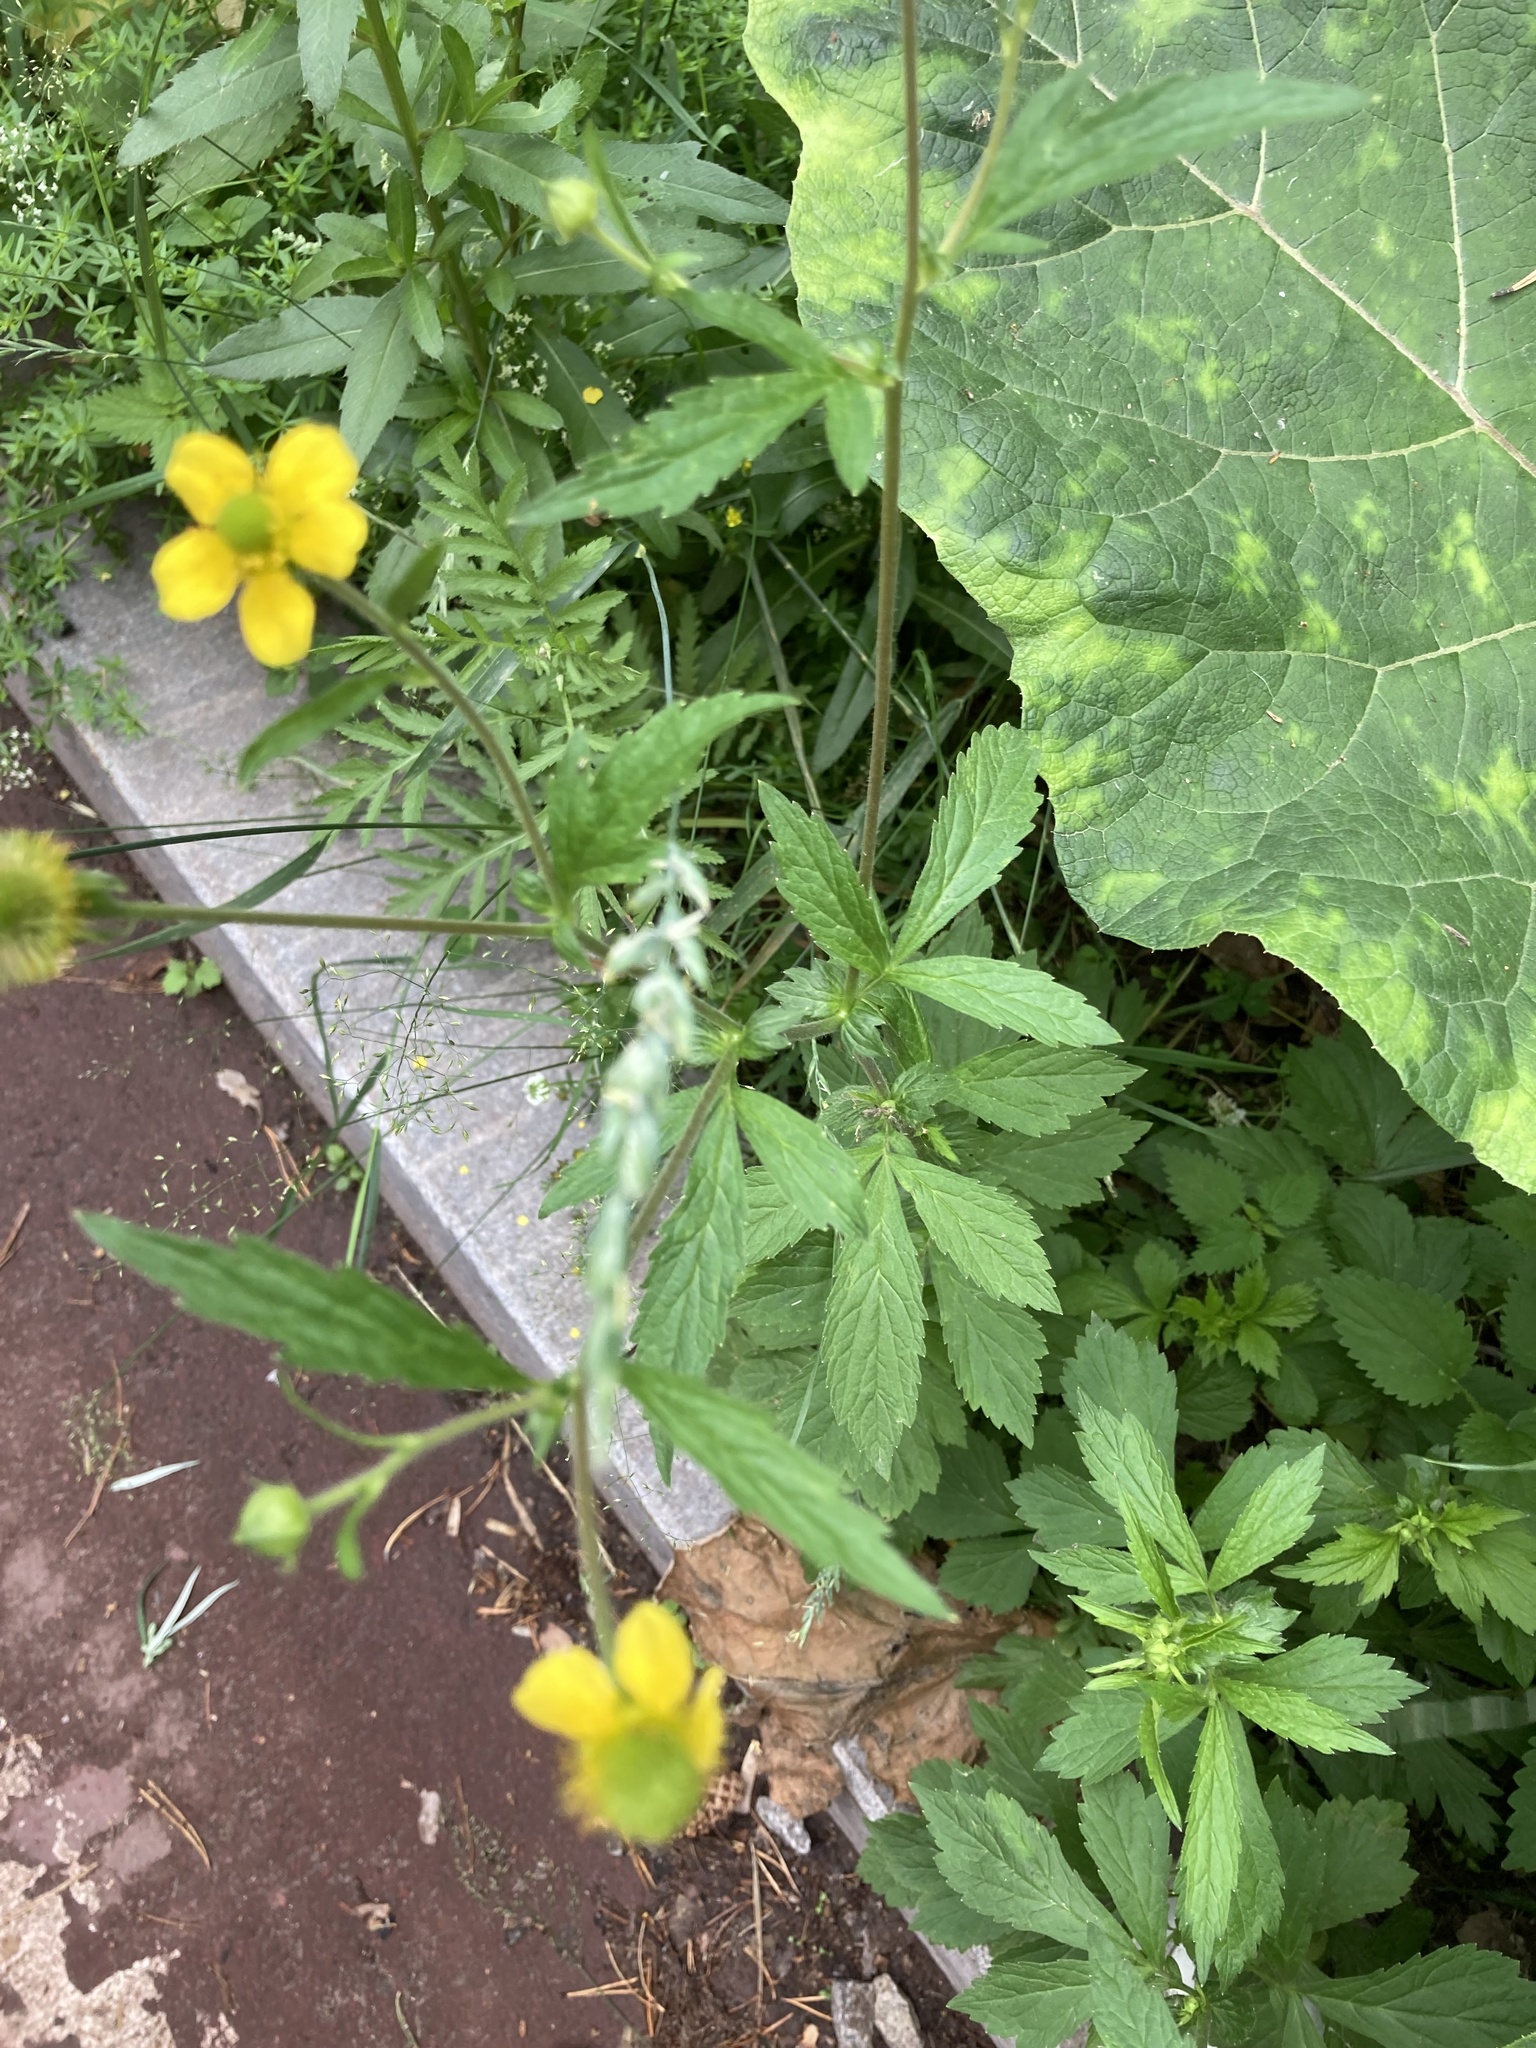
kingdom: Plantae
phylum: Tracheophyta
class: Magnoliopsida
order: Rosales
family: Rosaceae
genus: Geum
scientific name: Geum aleppicum
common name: Yellow avens
